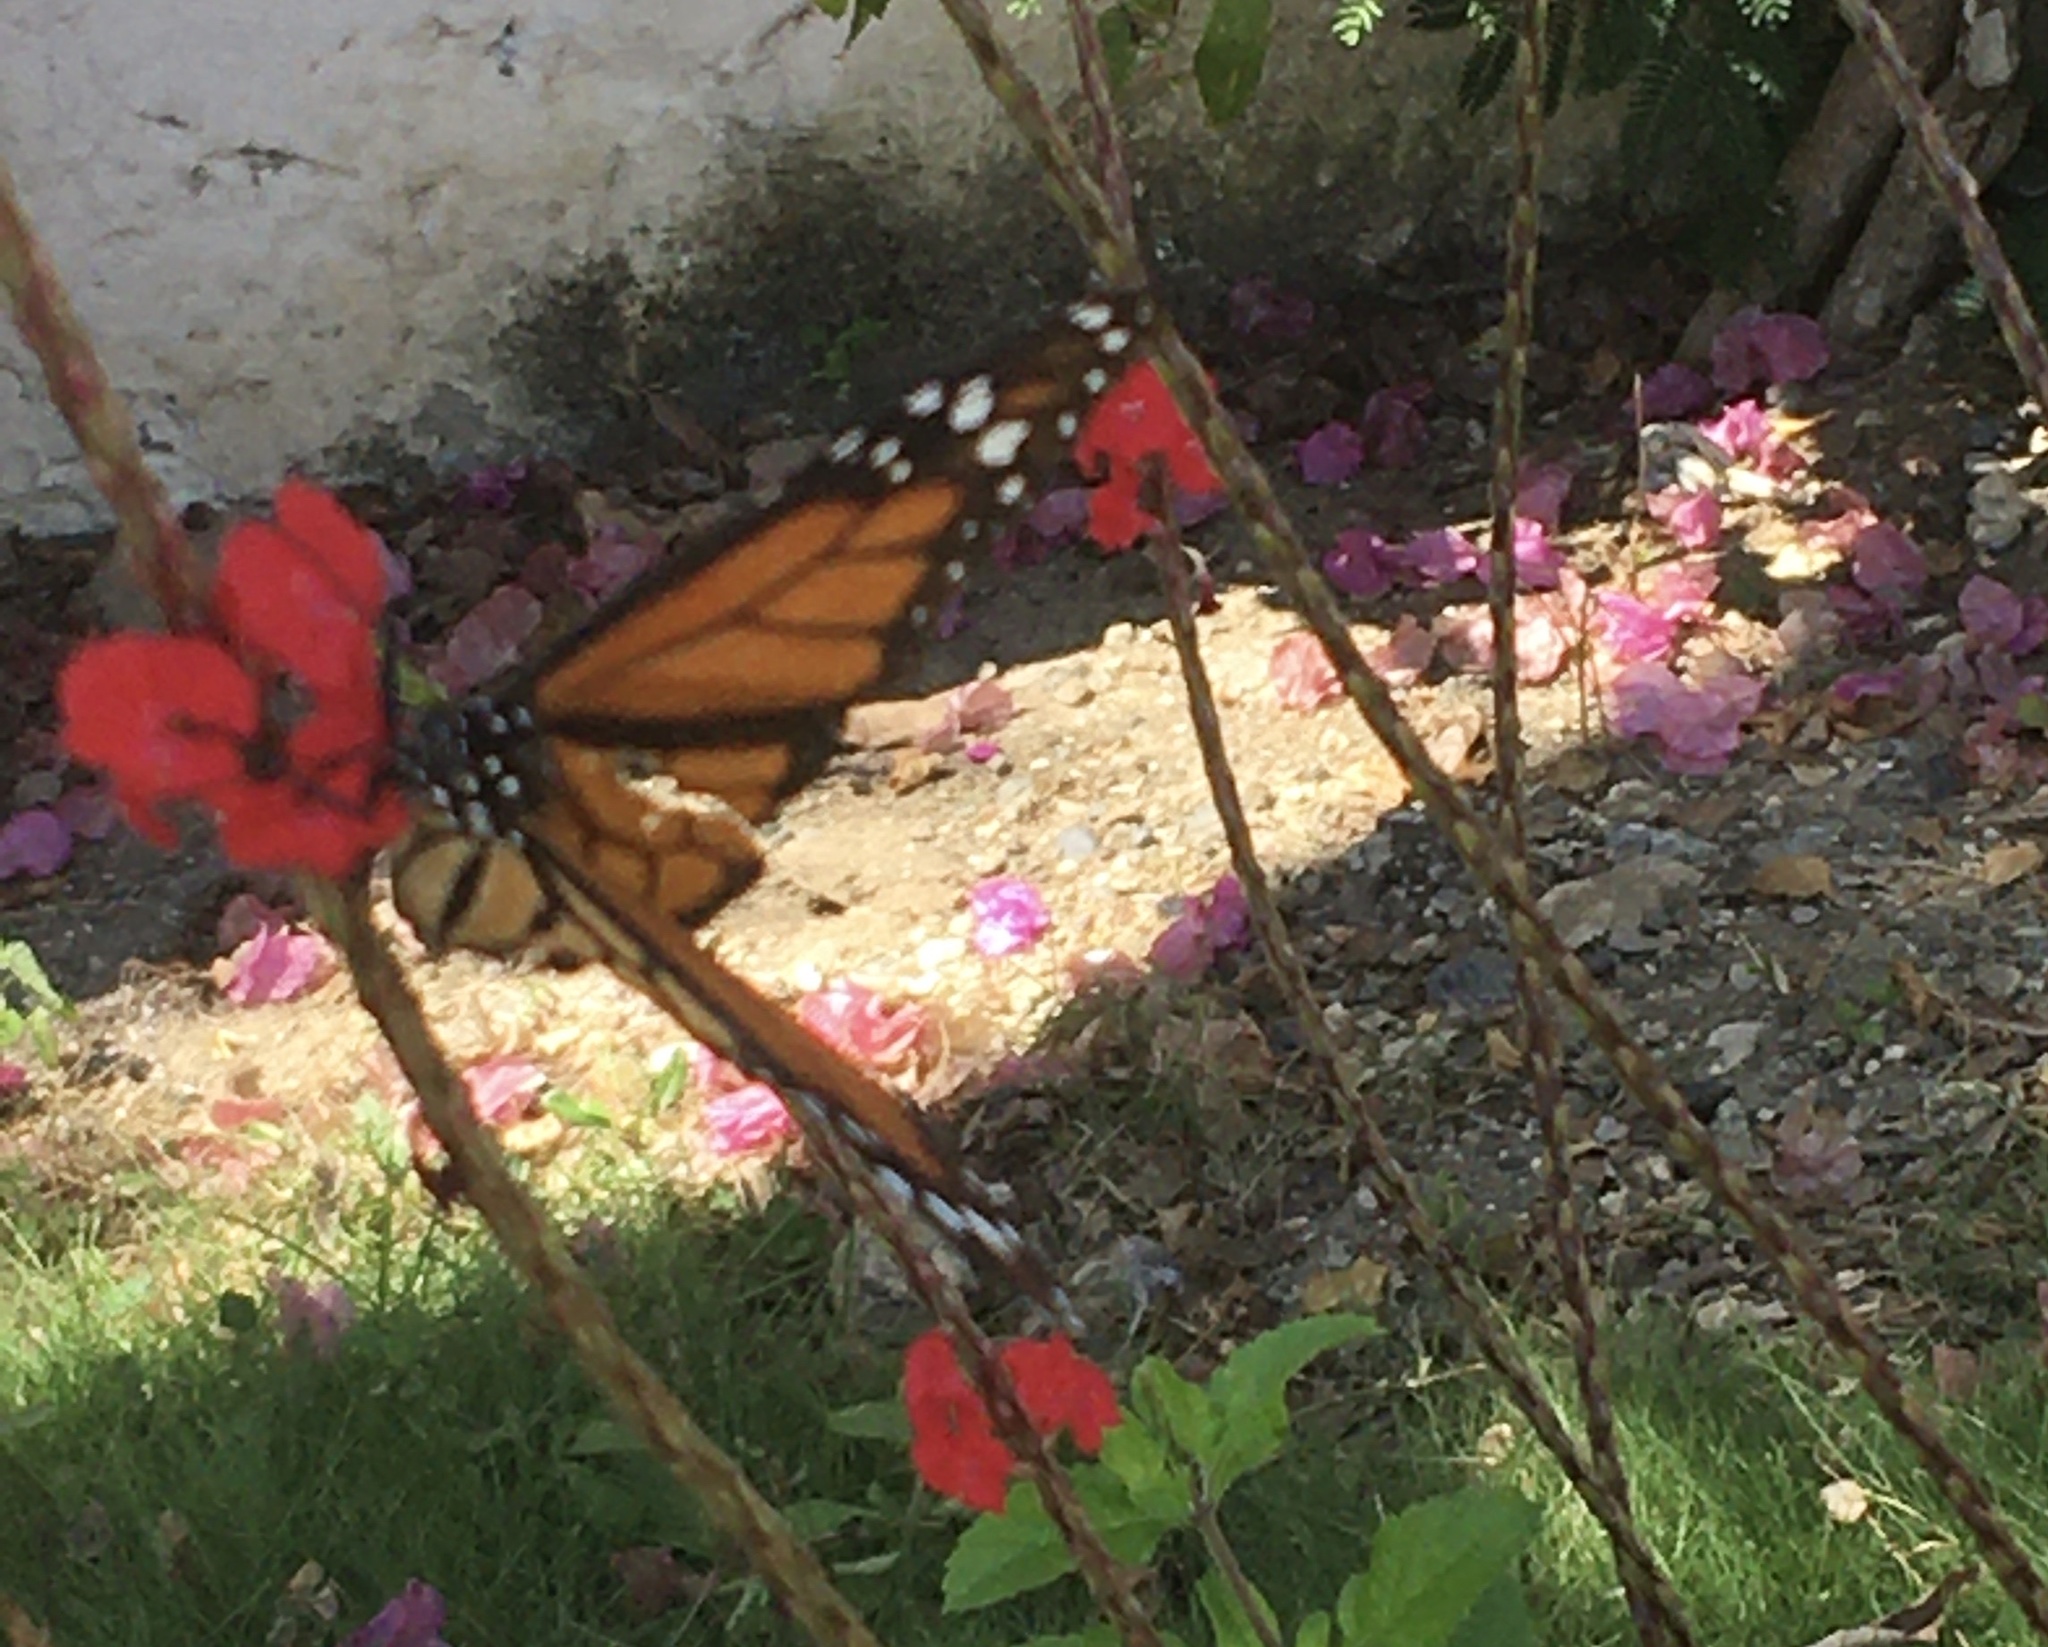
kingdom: Animalia
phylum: Arthropoda
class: Insecta
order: Lepidoptera
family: Nymphalidae
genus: Danaus
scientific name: Danaus plexippus
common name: Monarch
